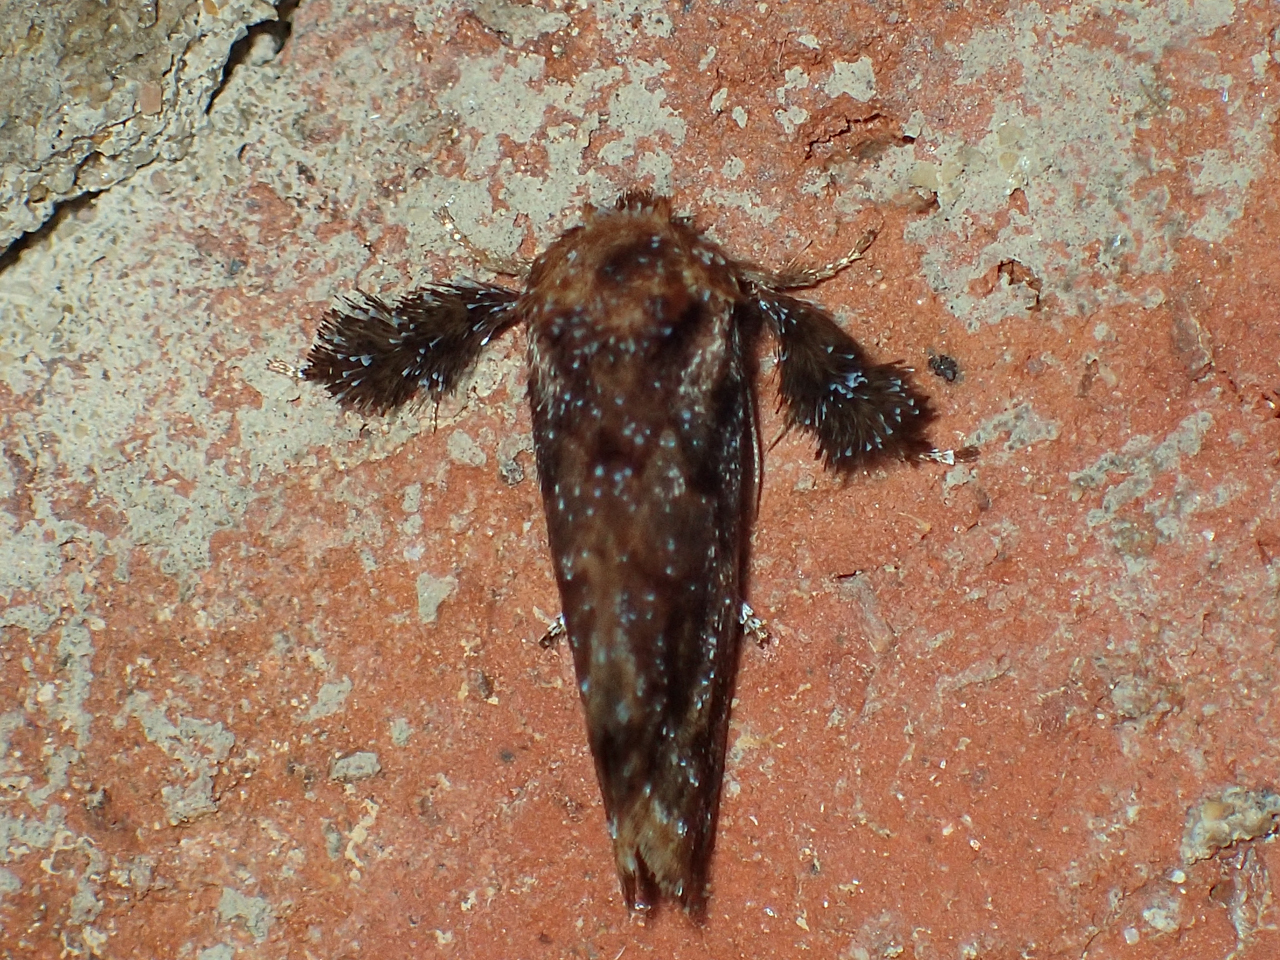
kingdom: Animalia
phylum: Arthropoda
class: Insecta
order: Lepidoptera
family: Limacodidae
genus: Isochaetes
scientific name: Isochaetes beutenmuelleri
